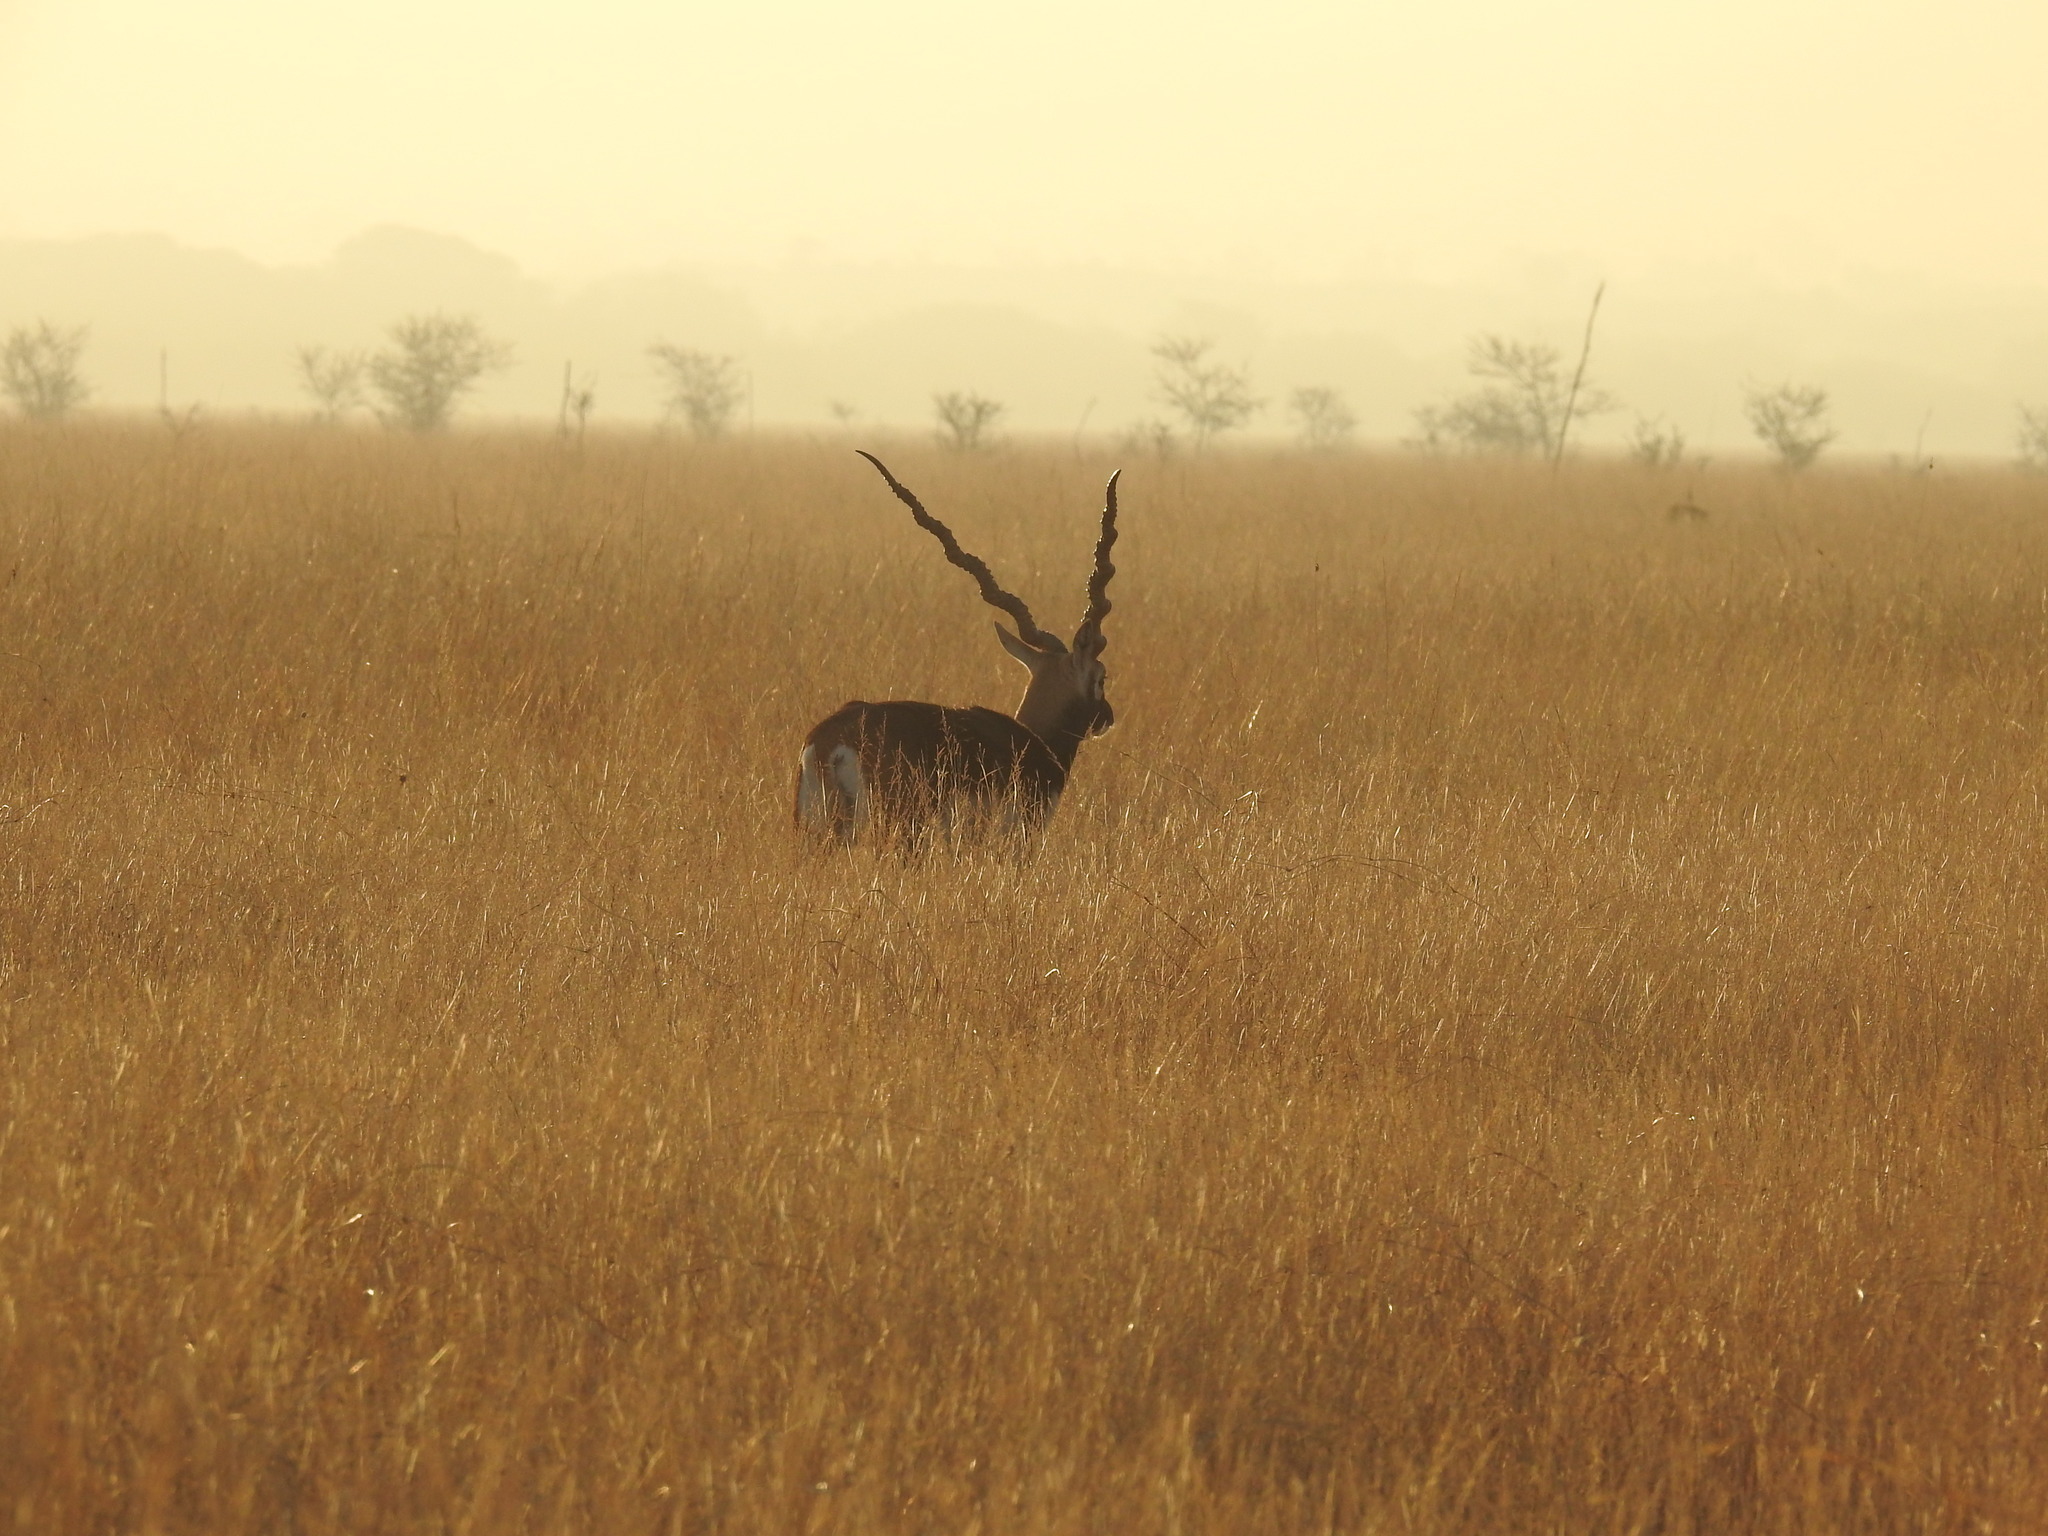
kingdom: Animalia
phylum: Chordata
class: Mammalia
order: Artiodactyla
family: Bovidae
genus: Antilope
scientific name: Antilope cervicapra
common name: Blackbuck
